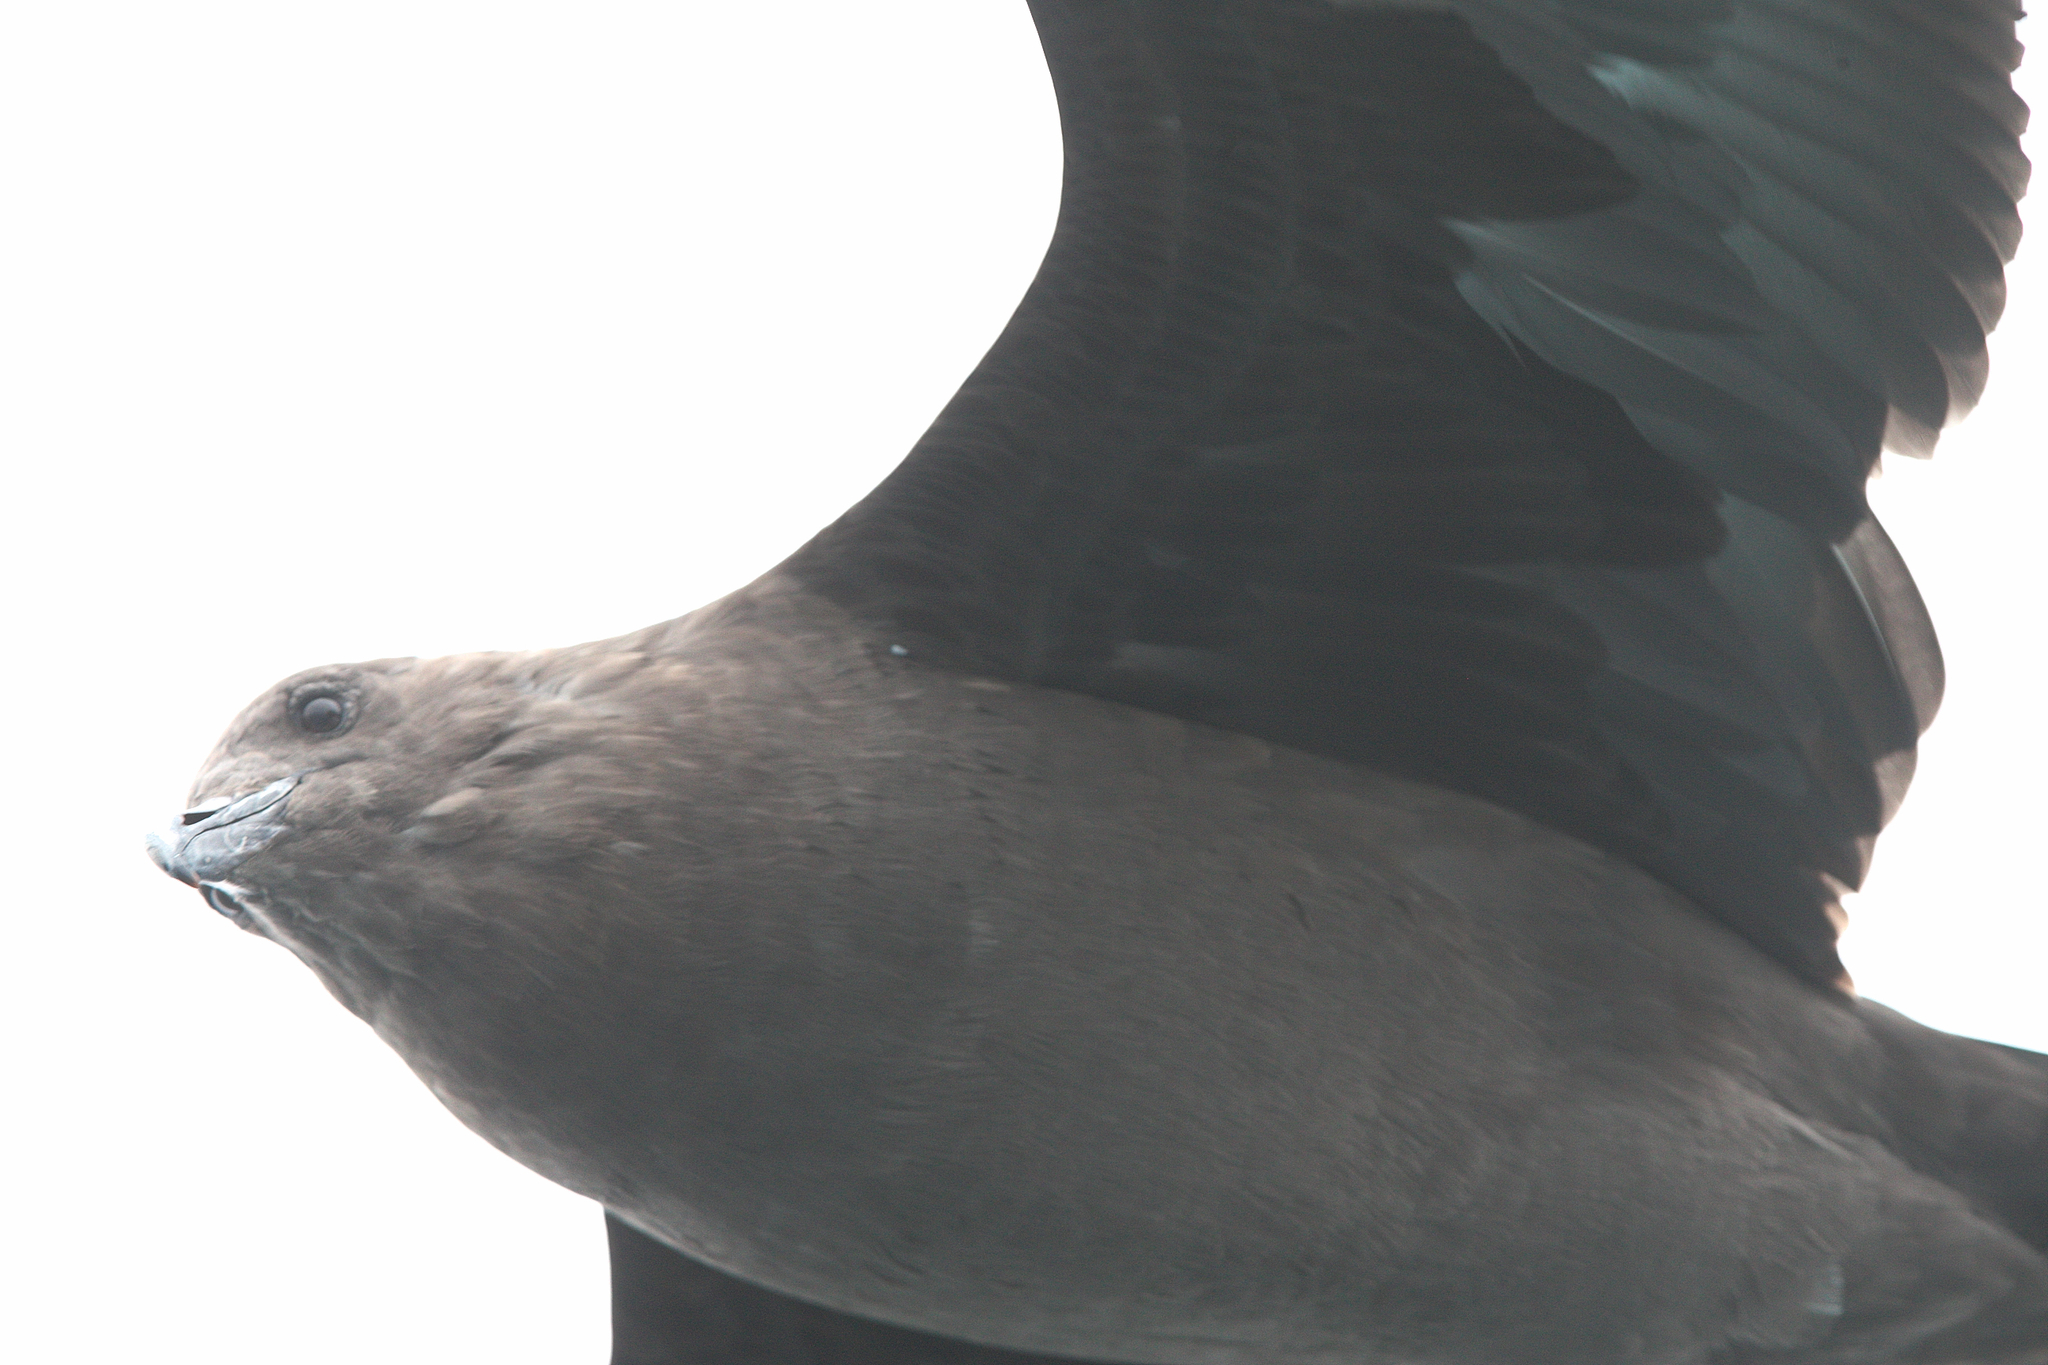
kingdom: Animalia
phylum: Chordata
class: Aves
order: Charadriiformes
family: Stercorariidae
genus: Stercorarius
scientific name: Stercorarius maccormicki
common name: South polar skua
